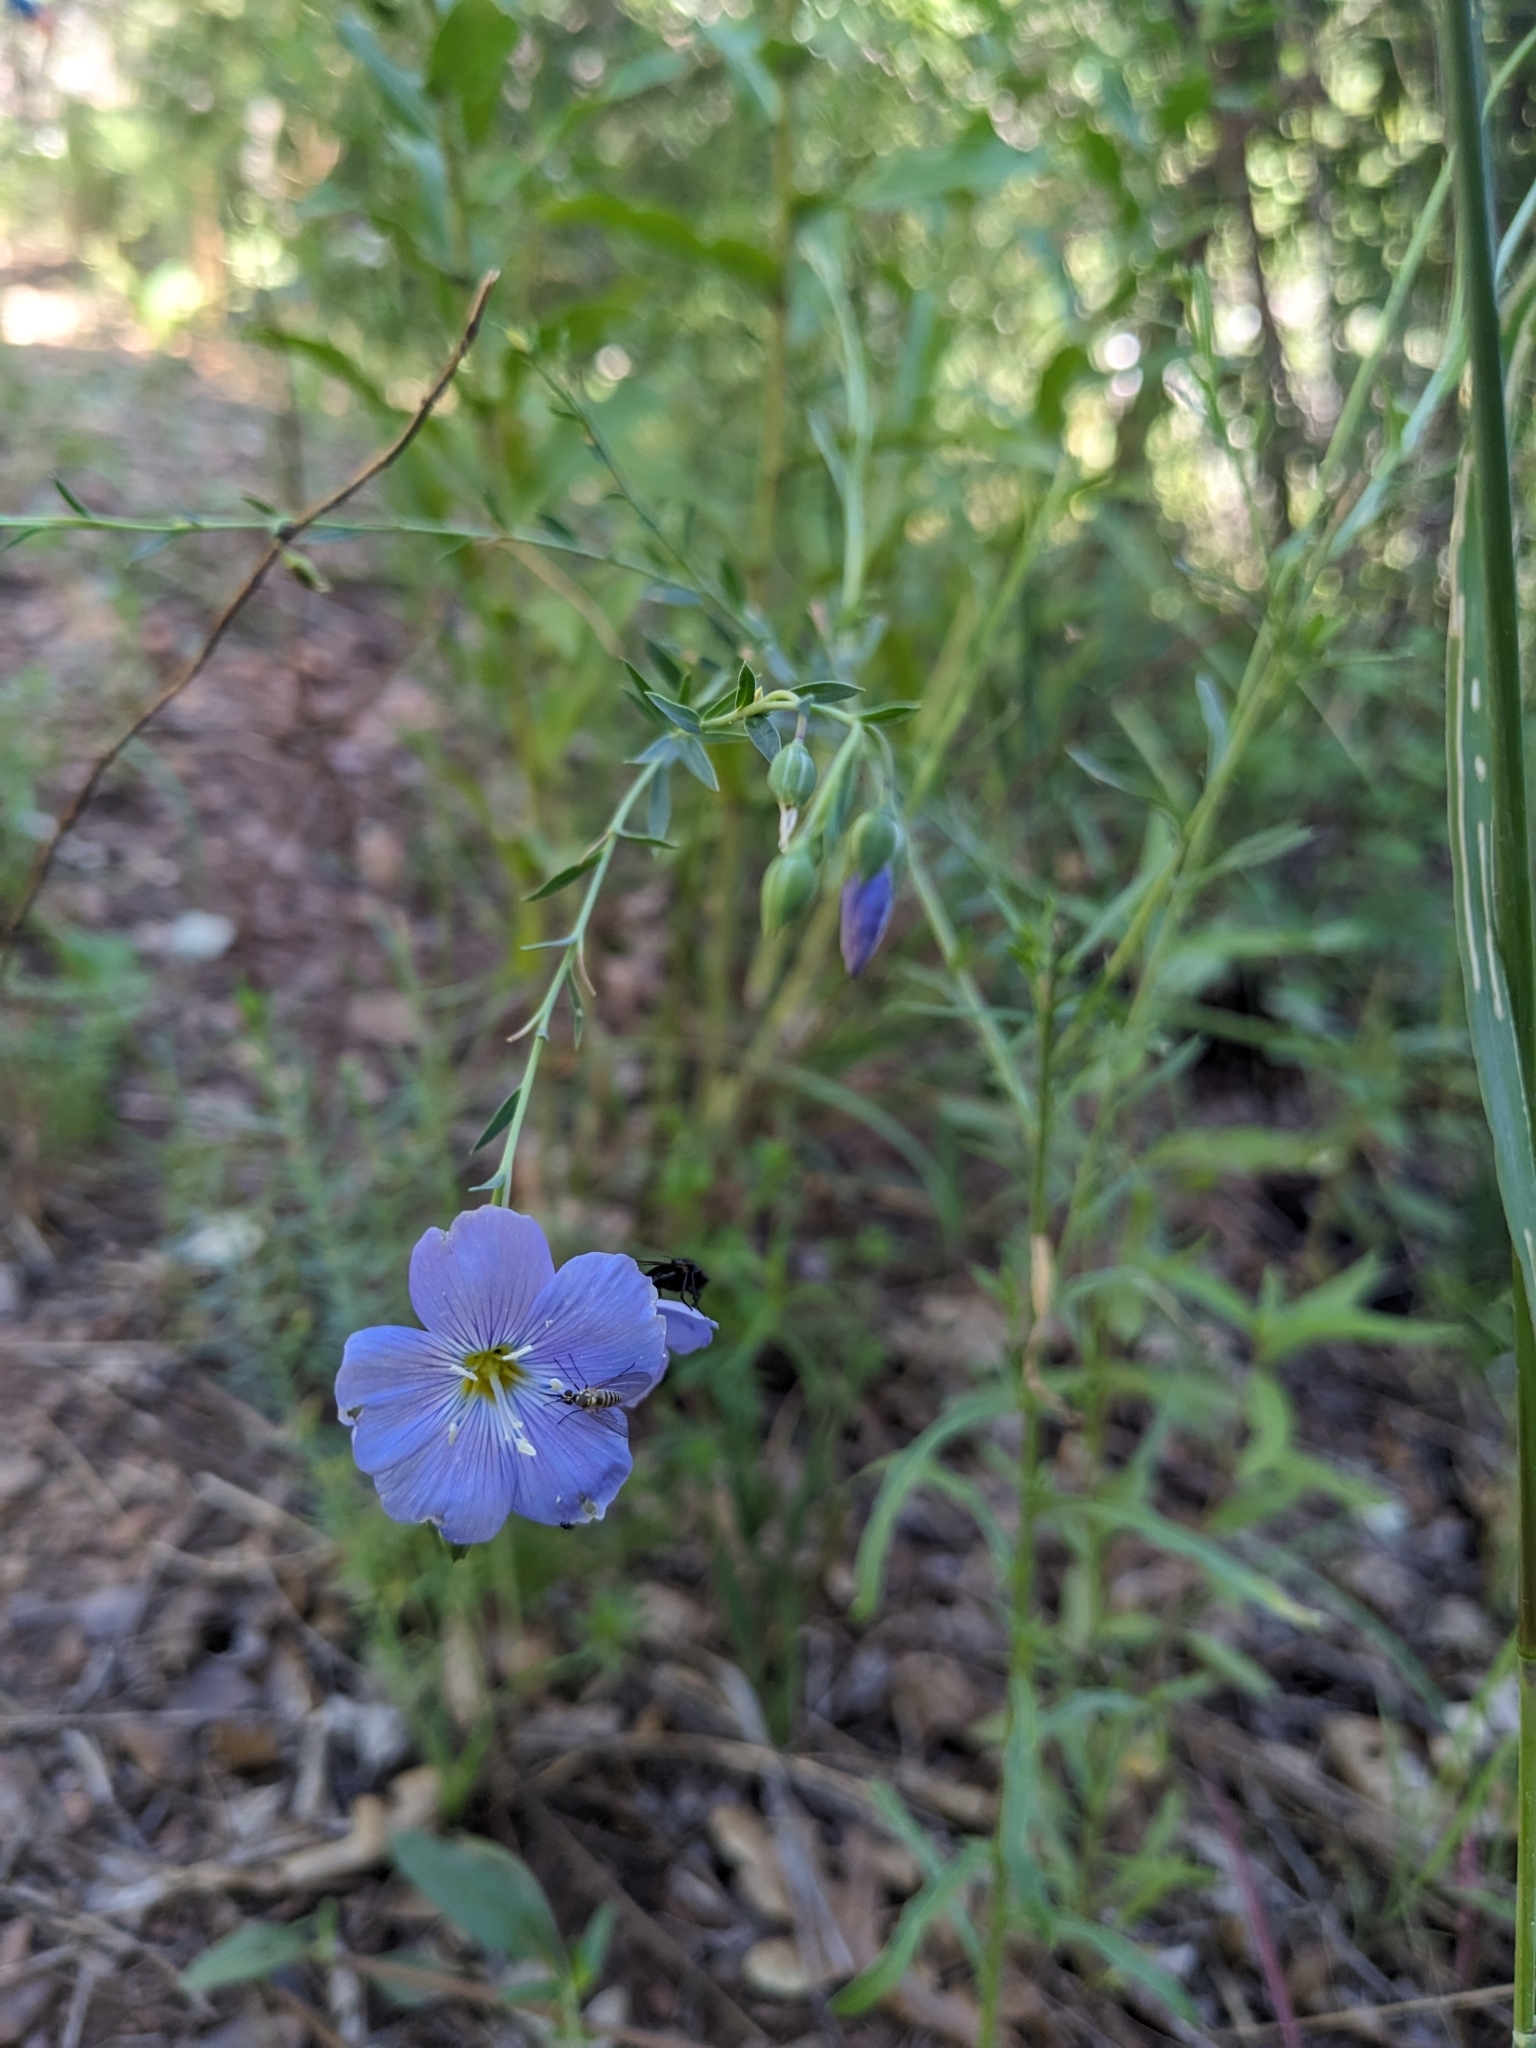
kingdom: Plantae
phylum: Tracheophyta
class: Magnoliopsida
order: Malpighiales
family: Linaceae
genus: Linum
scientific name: Linum lewisii
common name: Prairie flax
